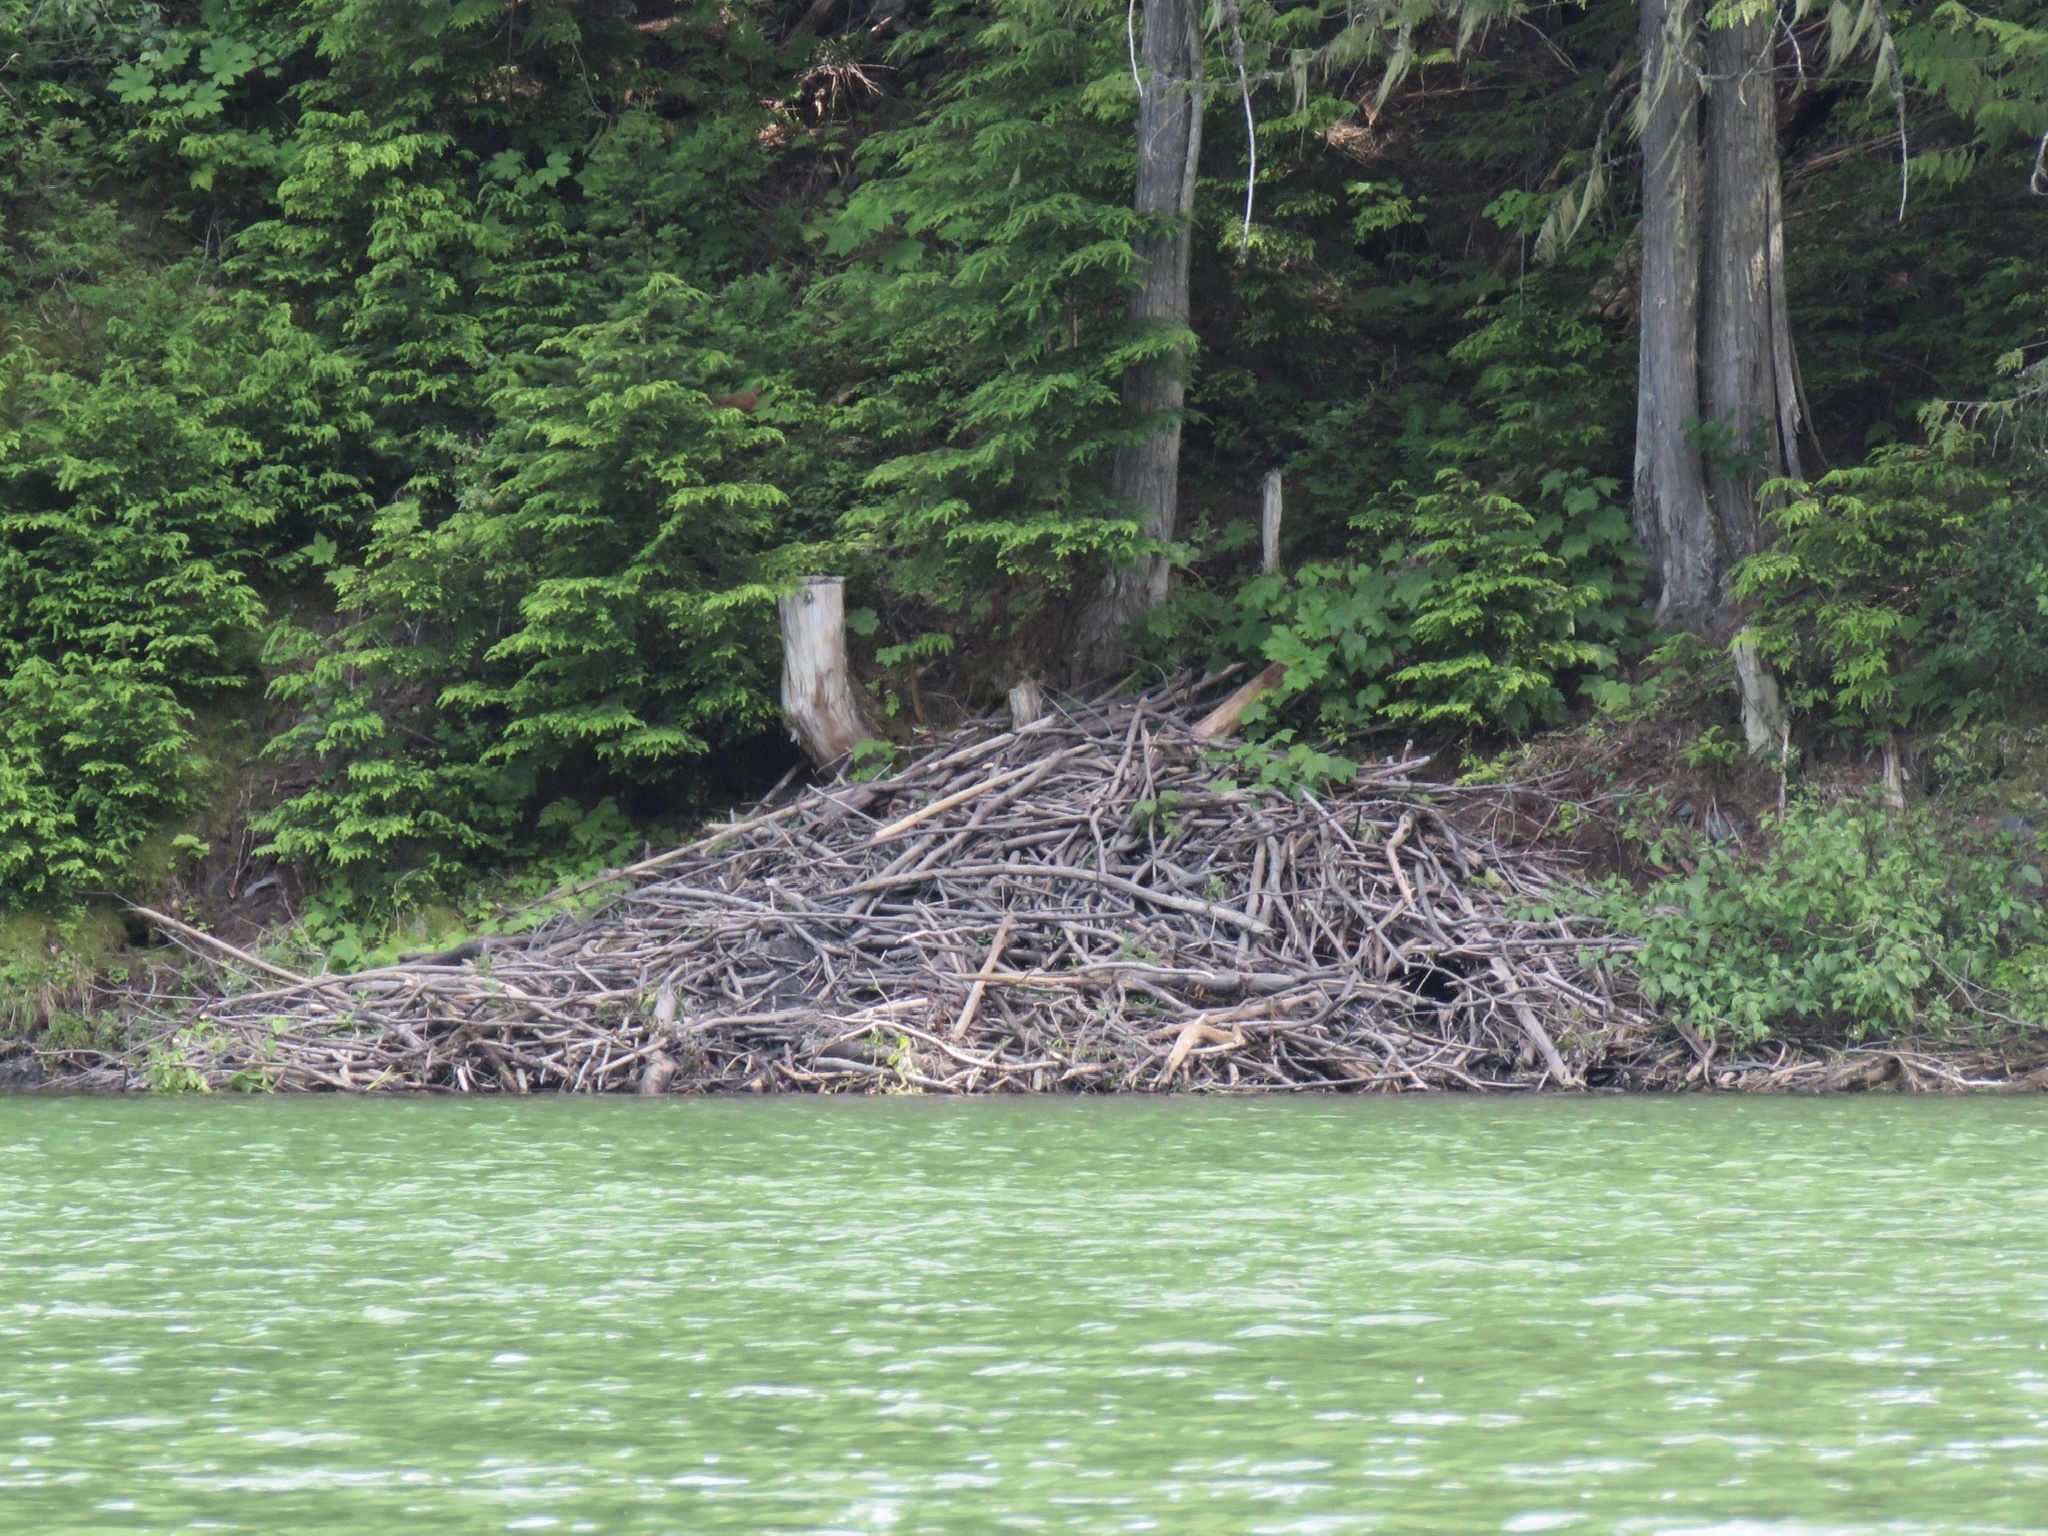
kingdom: Animalia
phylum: Chordata
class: Mammalia
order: Rodentia
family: Castoridae
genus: Castor
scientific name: Castor canadensis
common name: American beaver
